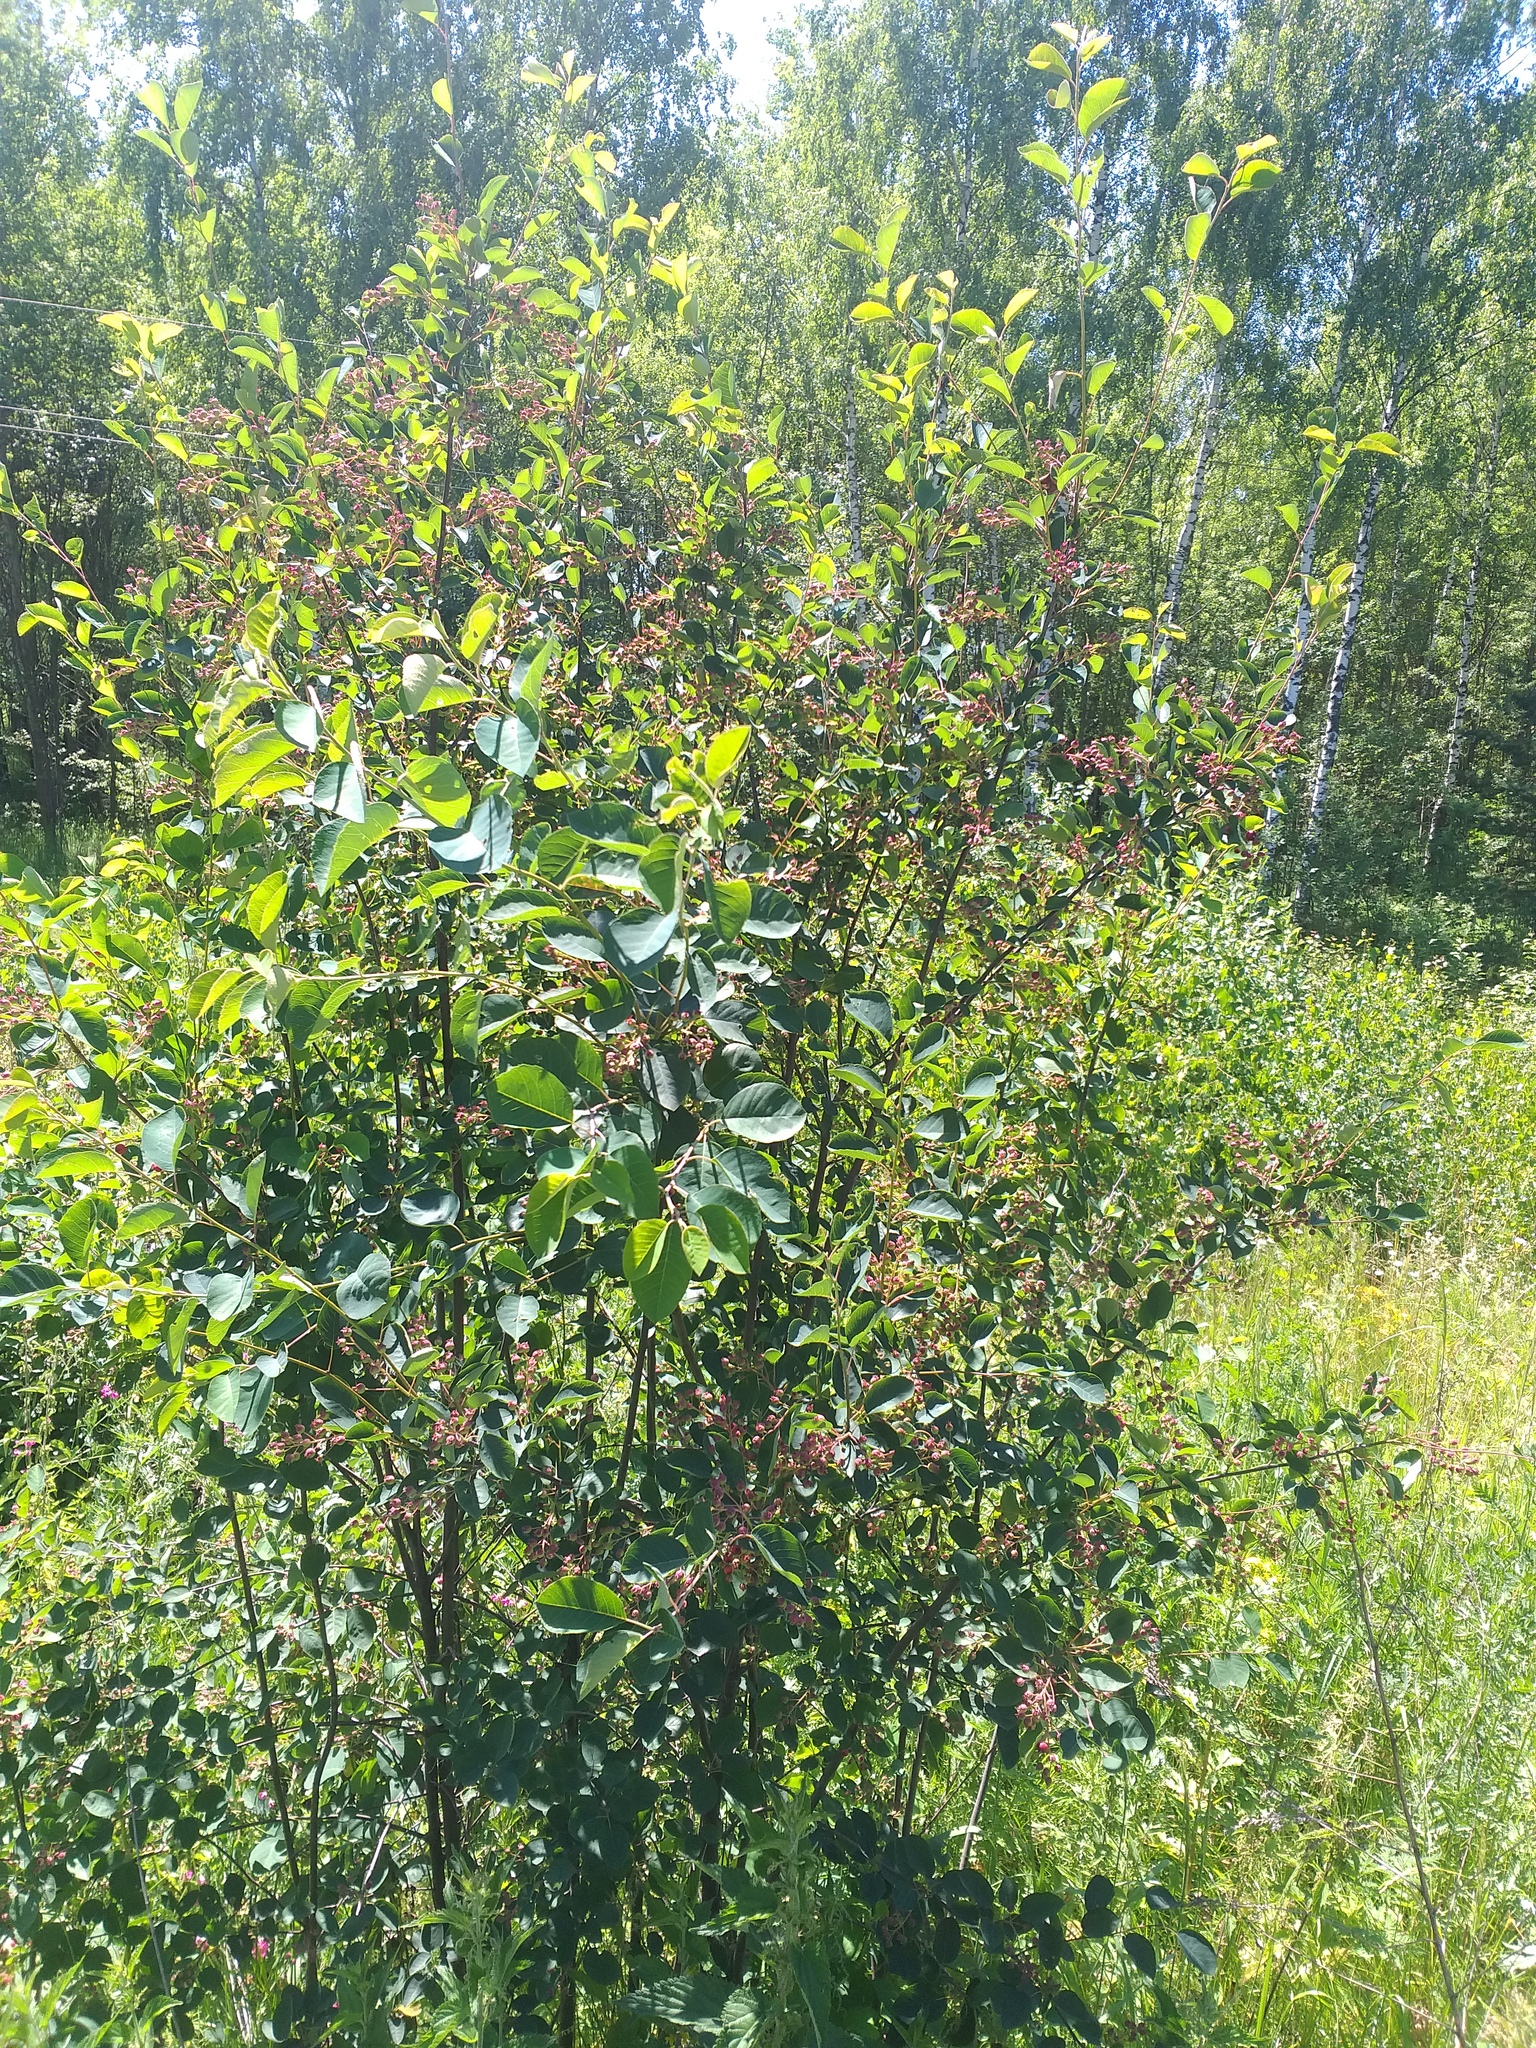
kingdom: Plantae
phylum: Tracheophyta
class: Magnoliopsida
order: Rosales
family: Rosaceae
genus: Amelanchier
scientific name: Amelanchier
